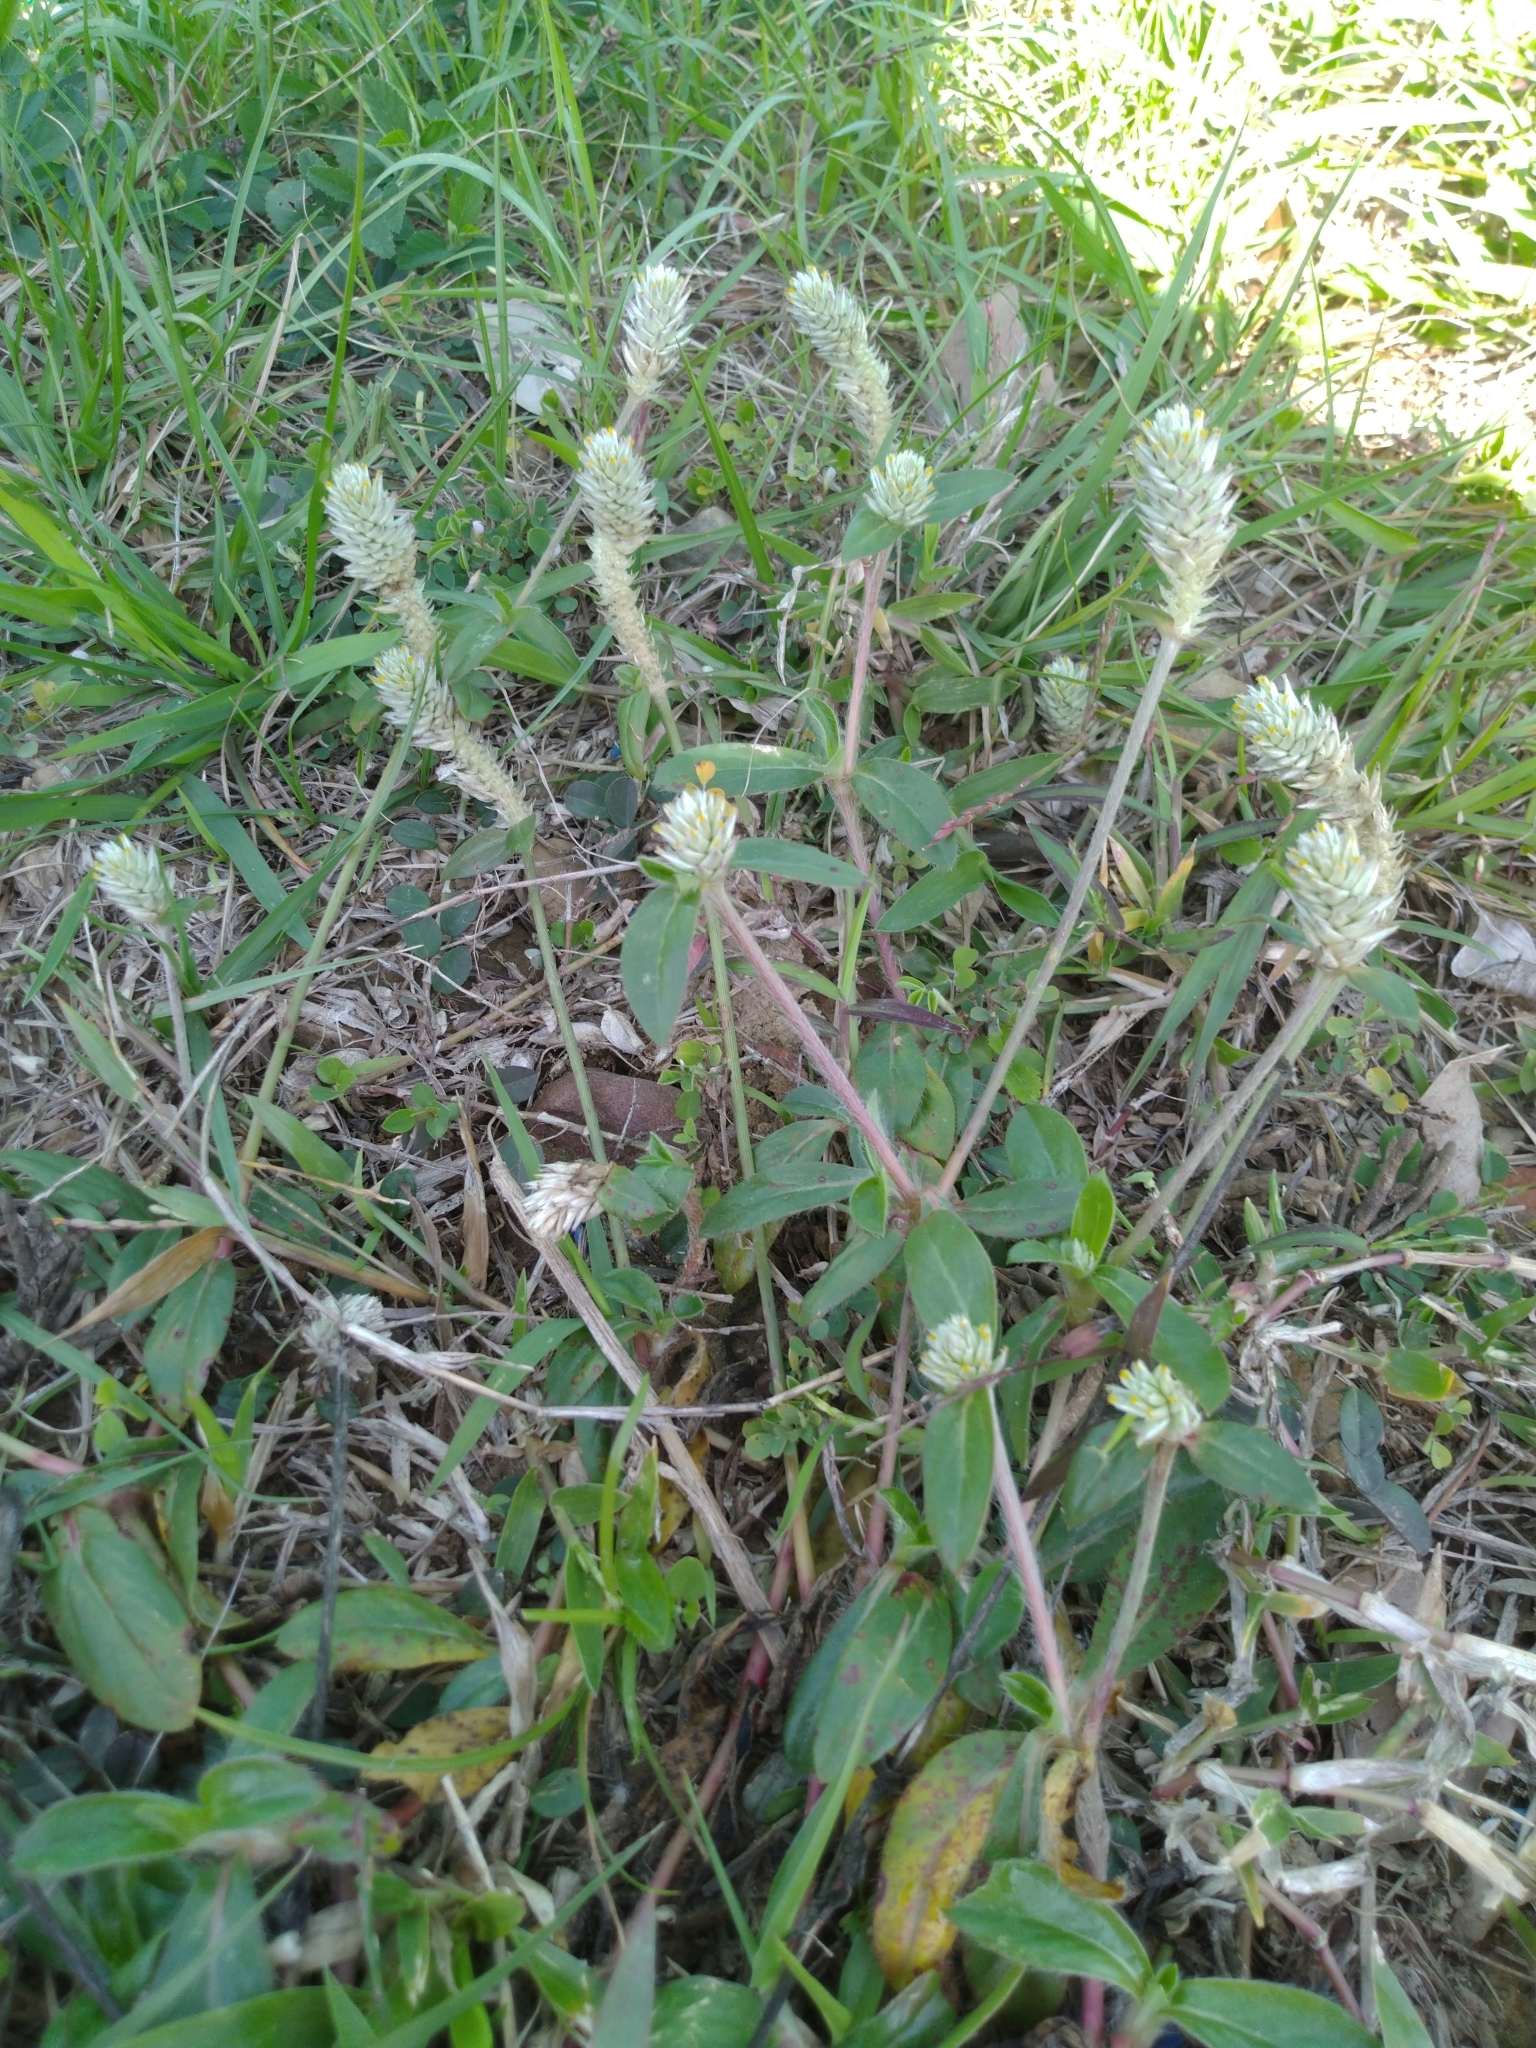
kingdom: Plantae
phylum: Tracheophyta
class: Magnoliopsida
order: Caryophyllales
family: Amaranthaceae
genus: Gomphrena
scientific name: Gomphrena serrata
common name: Arrasa con todo
